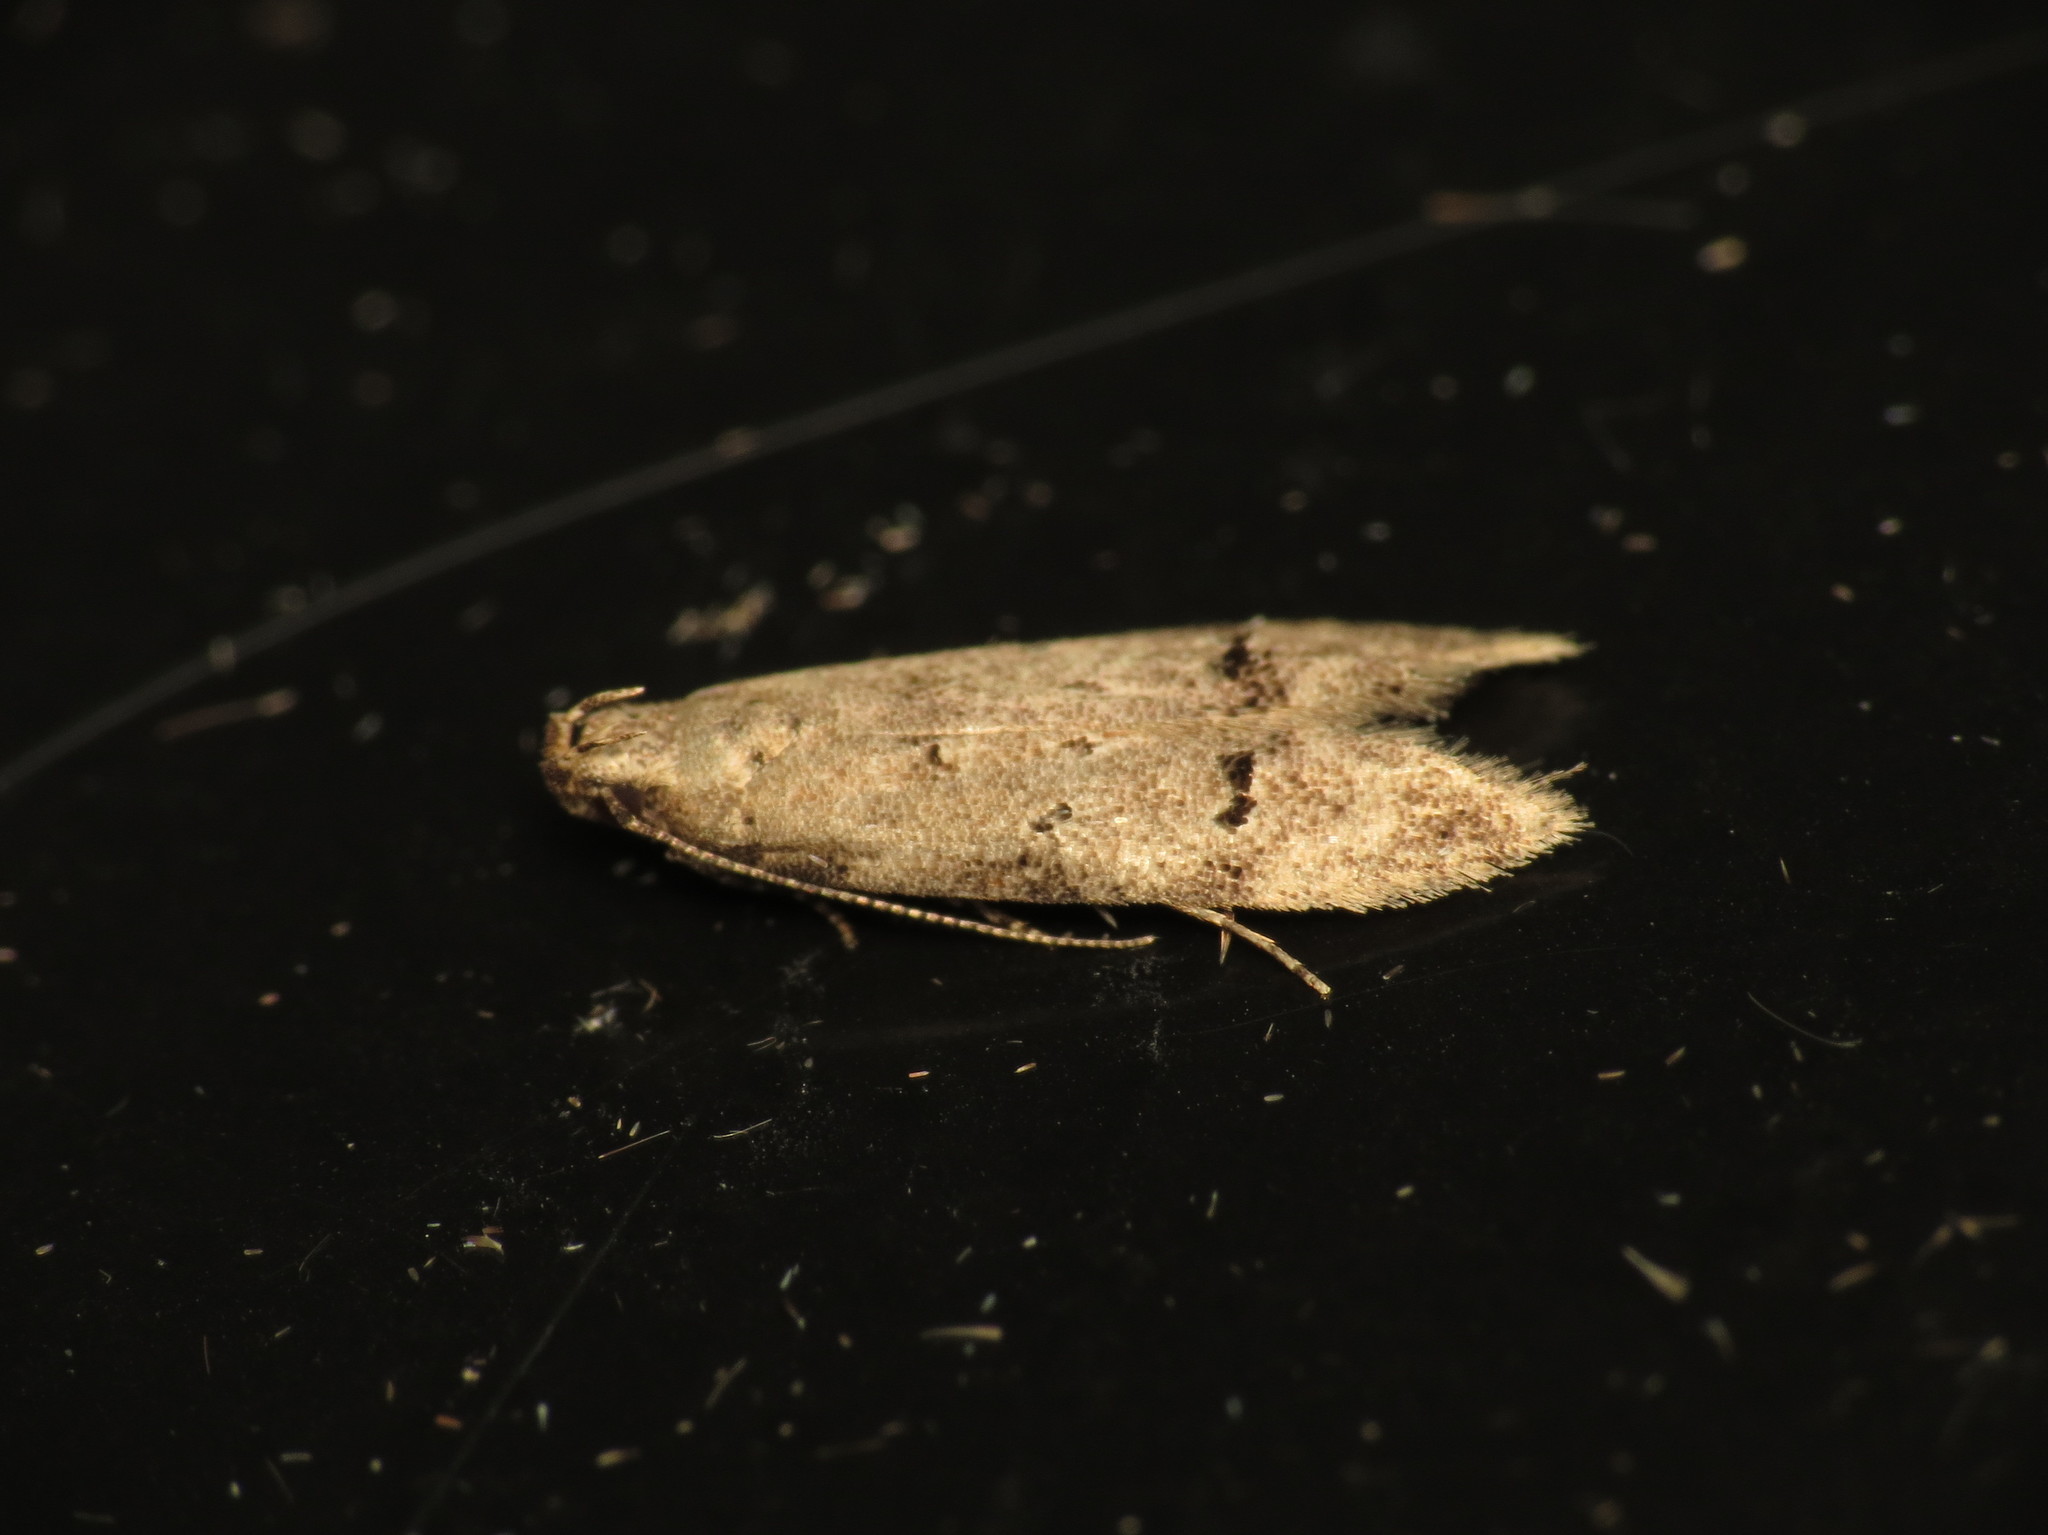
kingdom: Animalia
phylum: Arthropoda
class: Insecta
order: Lepidoptera
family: Gelechiidae
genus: Teleiodes
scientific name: Teleiodes vulgella
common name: Common groundling
